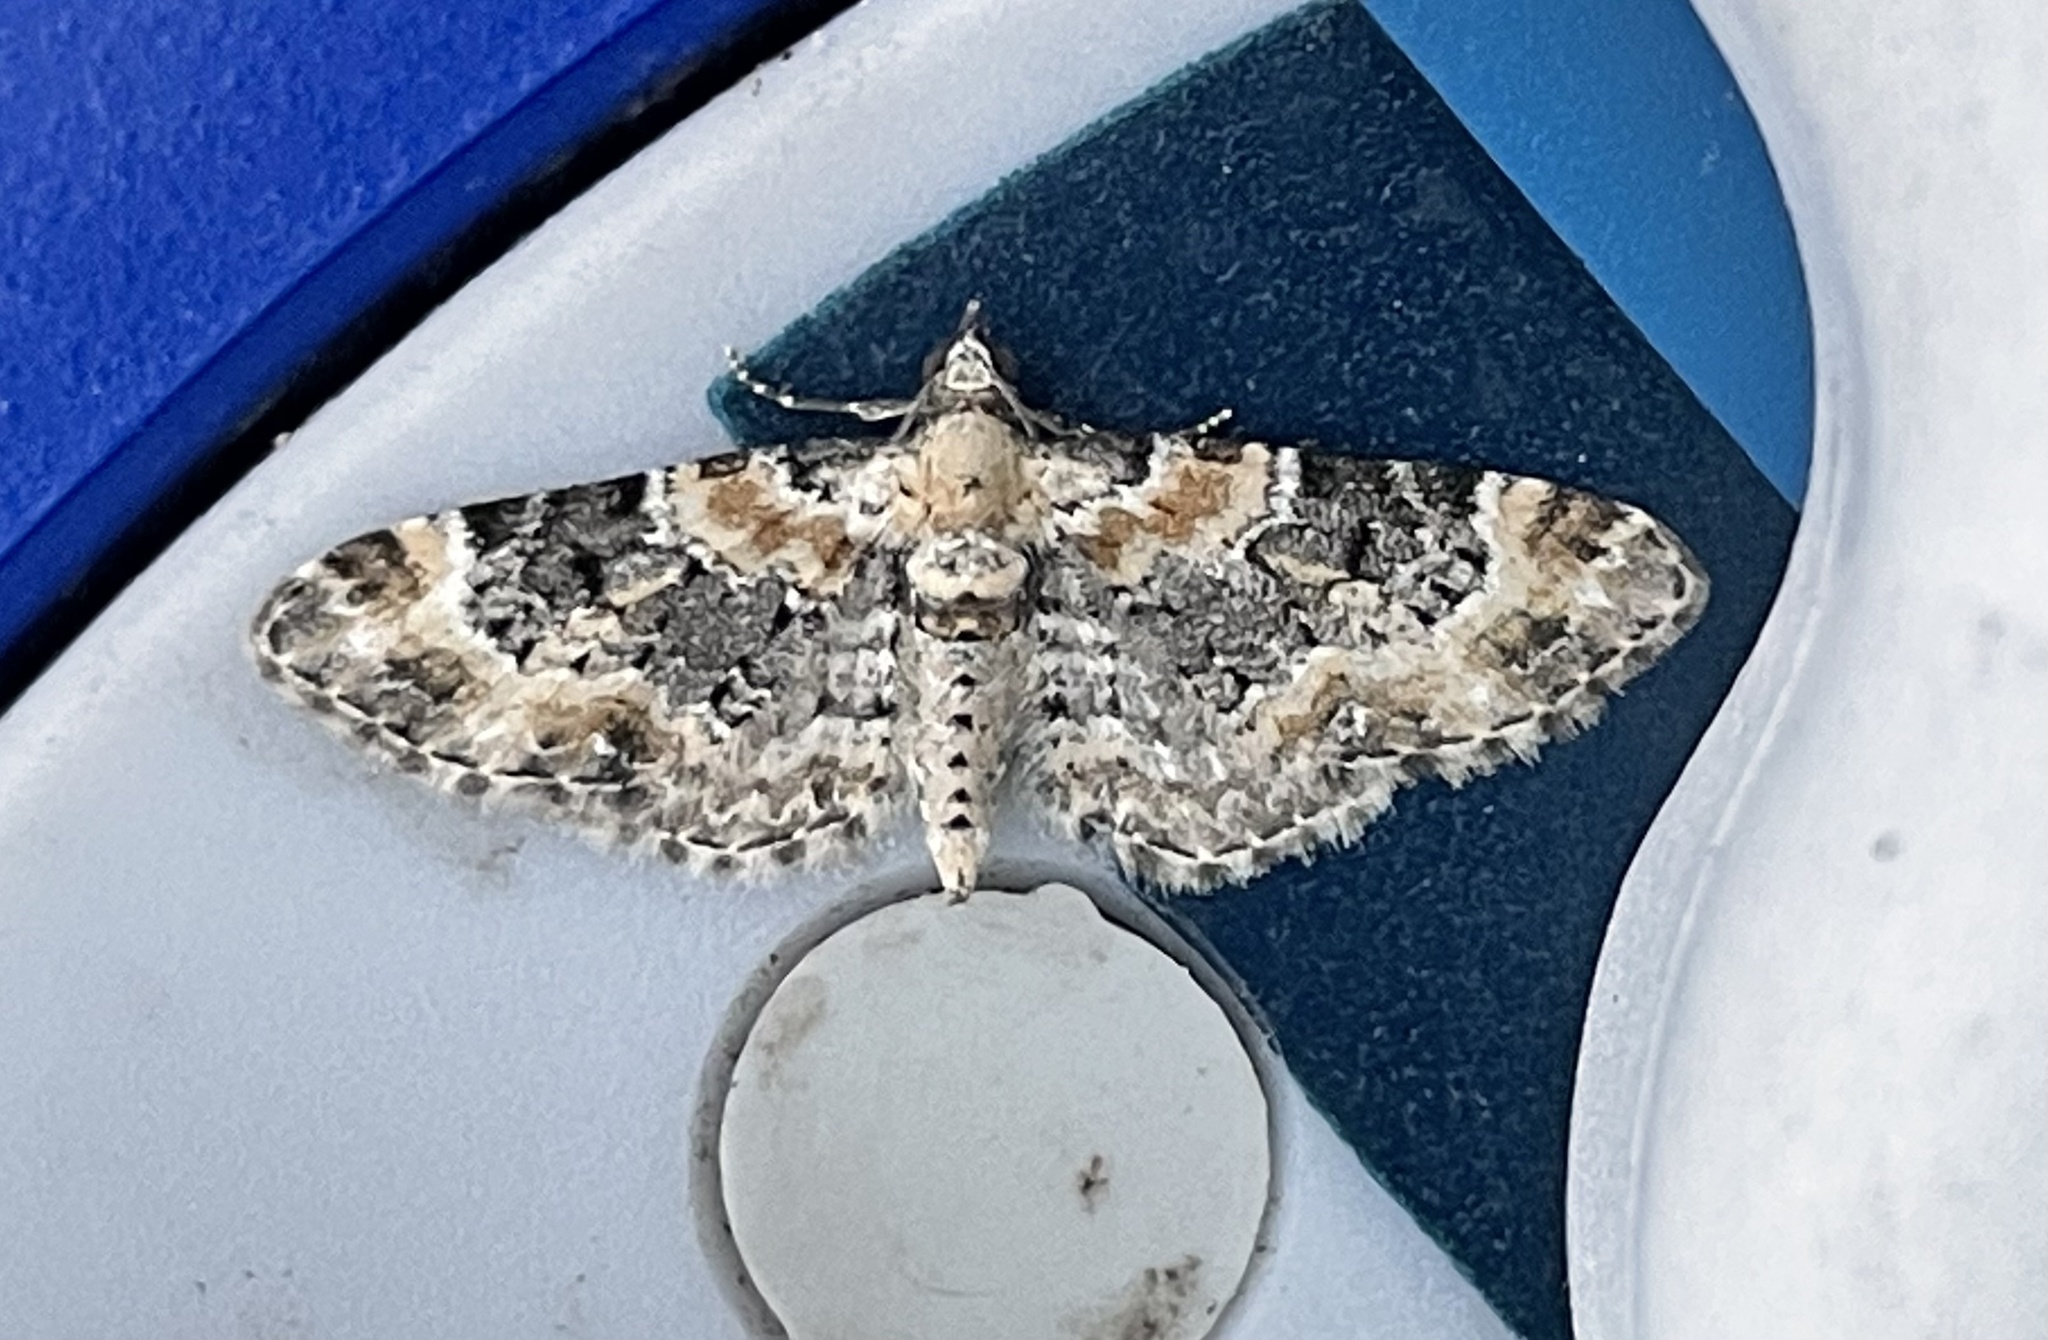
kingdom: Animalia
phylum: Arthropoda
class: Insecta
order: Lepidoptera
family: Geometridae
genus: Eupithecia
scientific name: Eupithecia pulchellata
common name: Foxglove pug
